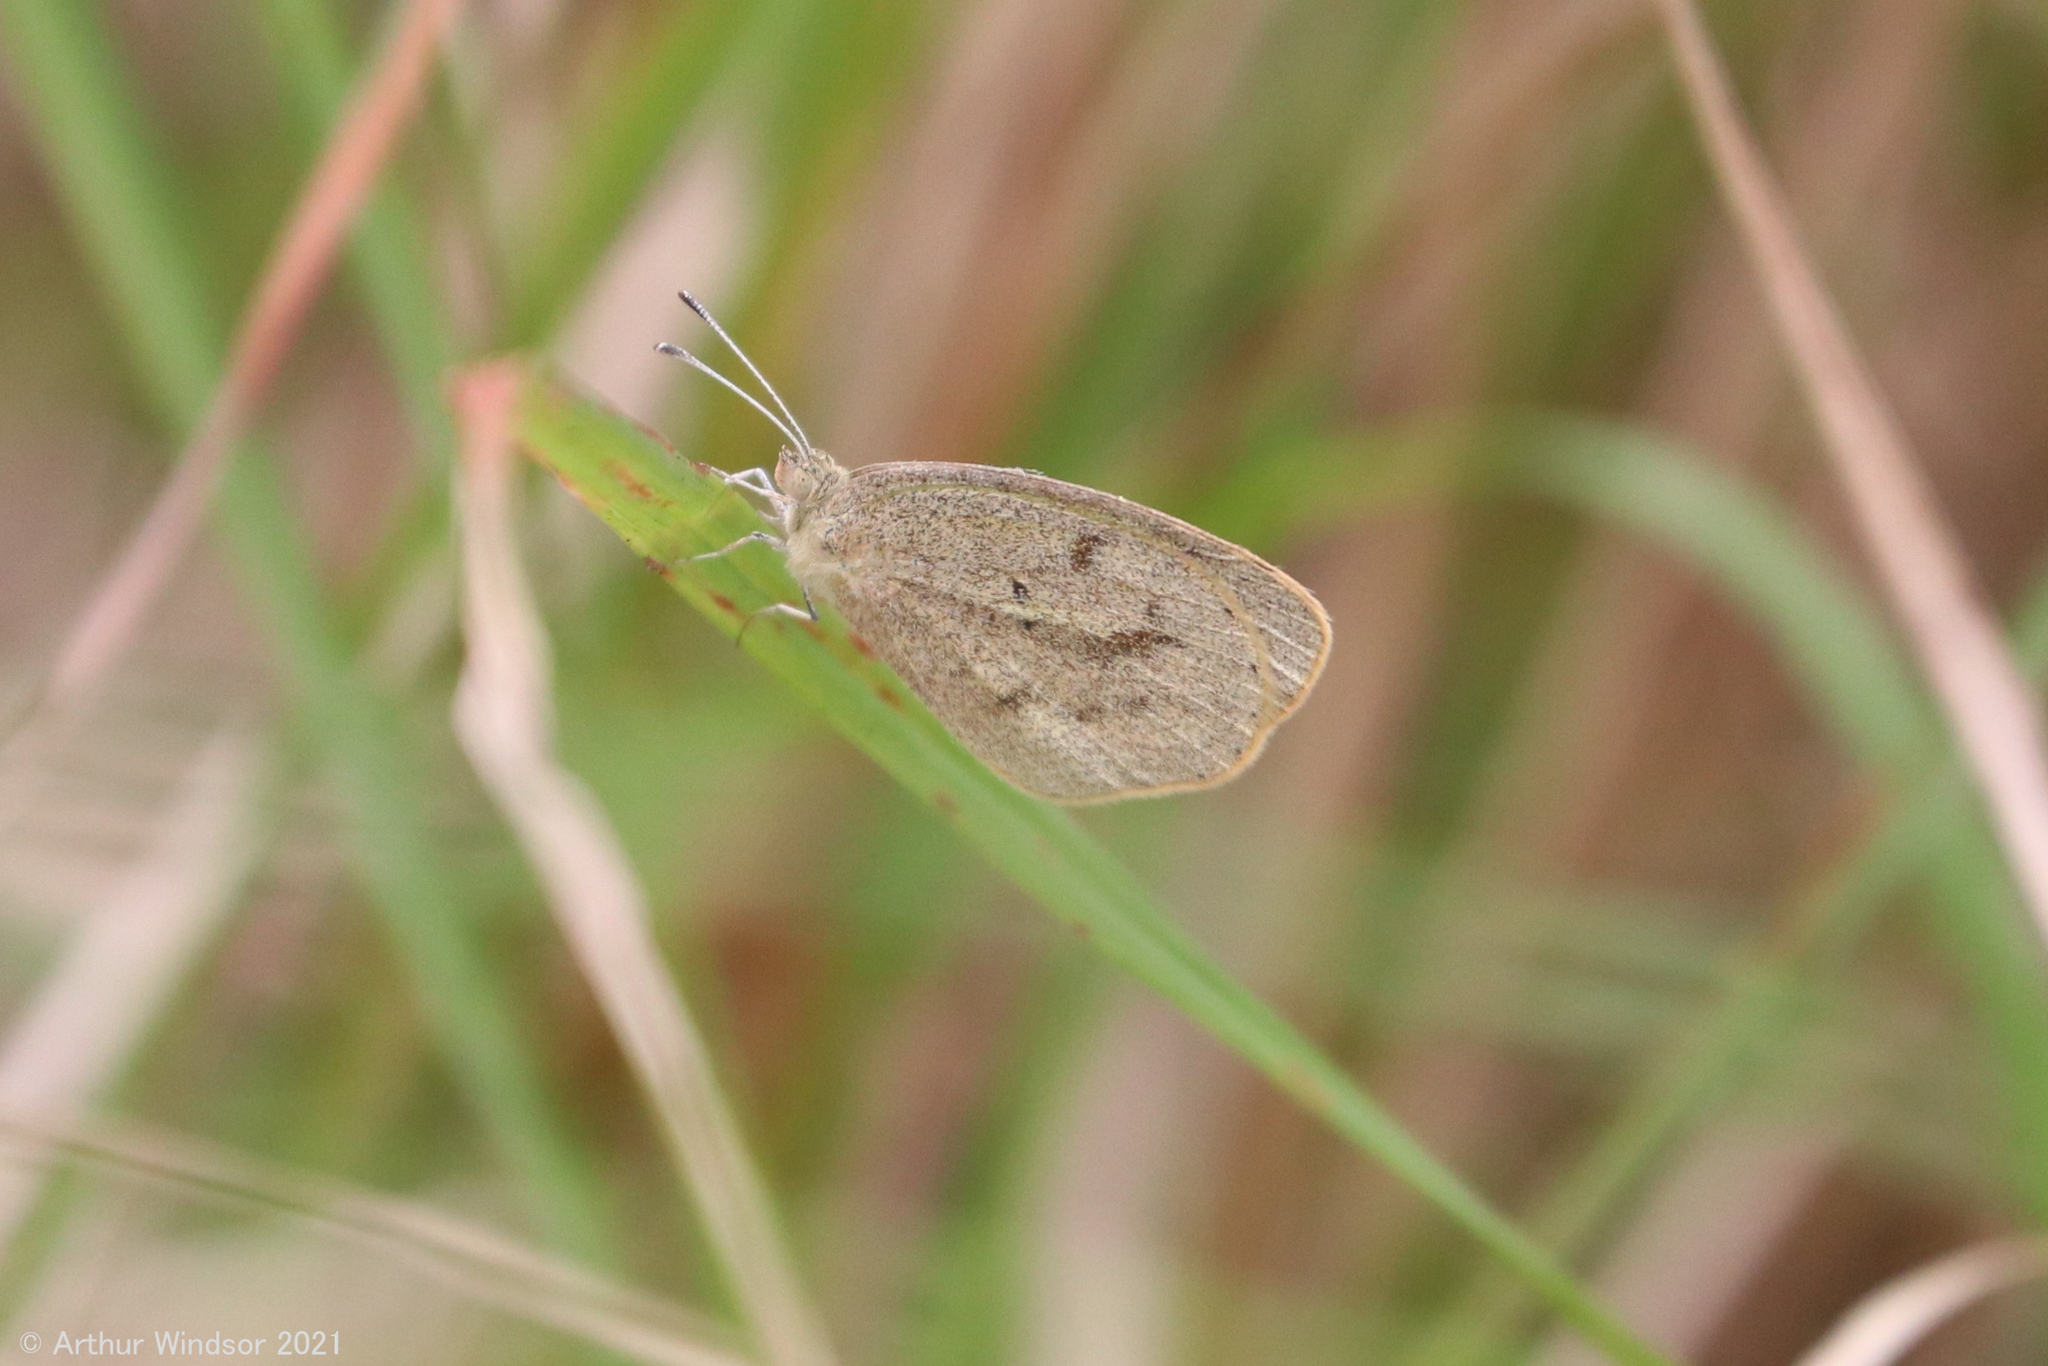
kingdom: Animalia
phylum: Arthropoda
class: Insecta
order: Lepidoptera
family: Pieridae
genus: Eurema
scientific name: Eurema daira
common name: Barred sulphur
